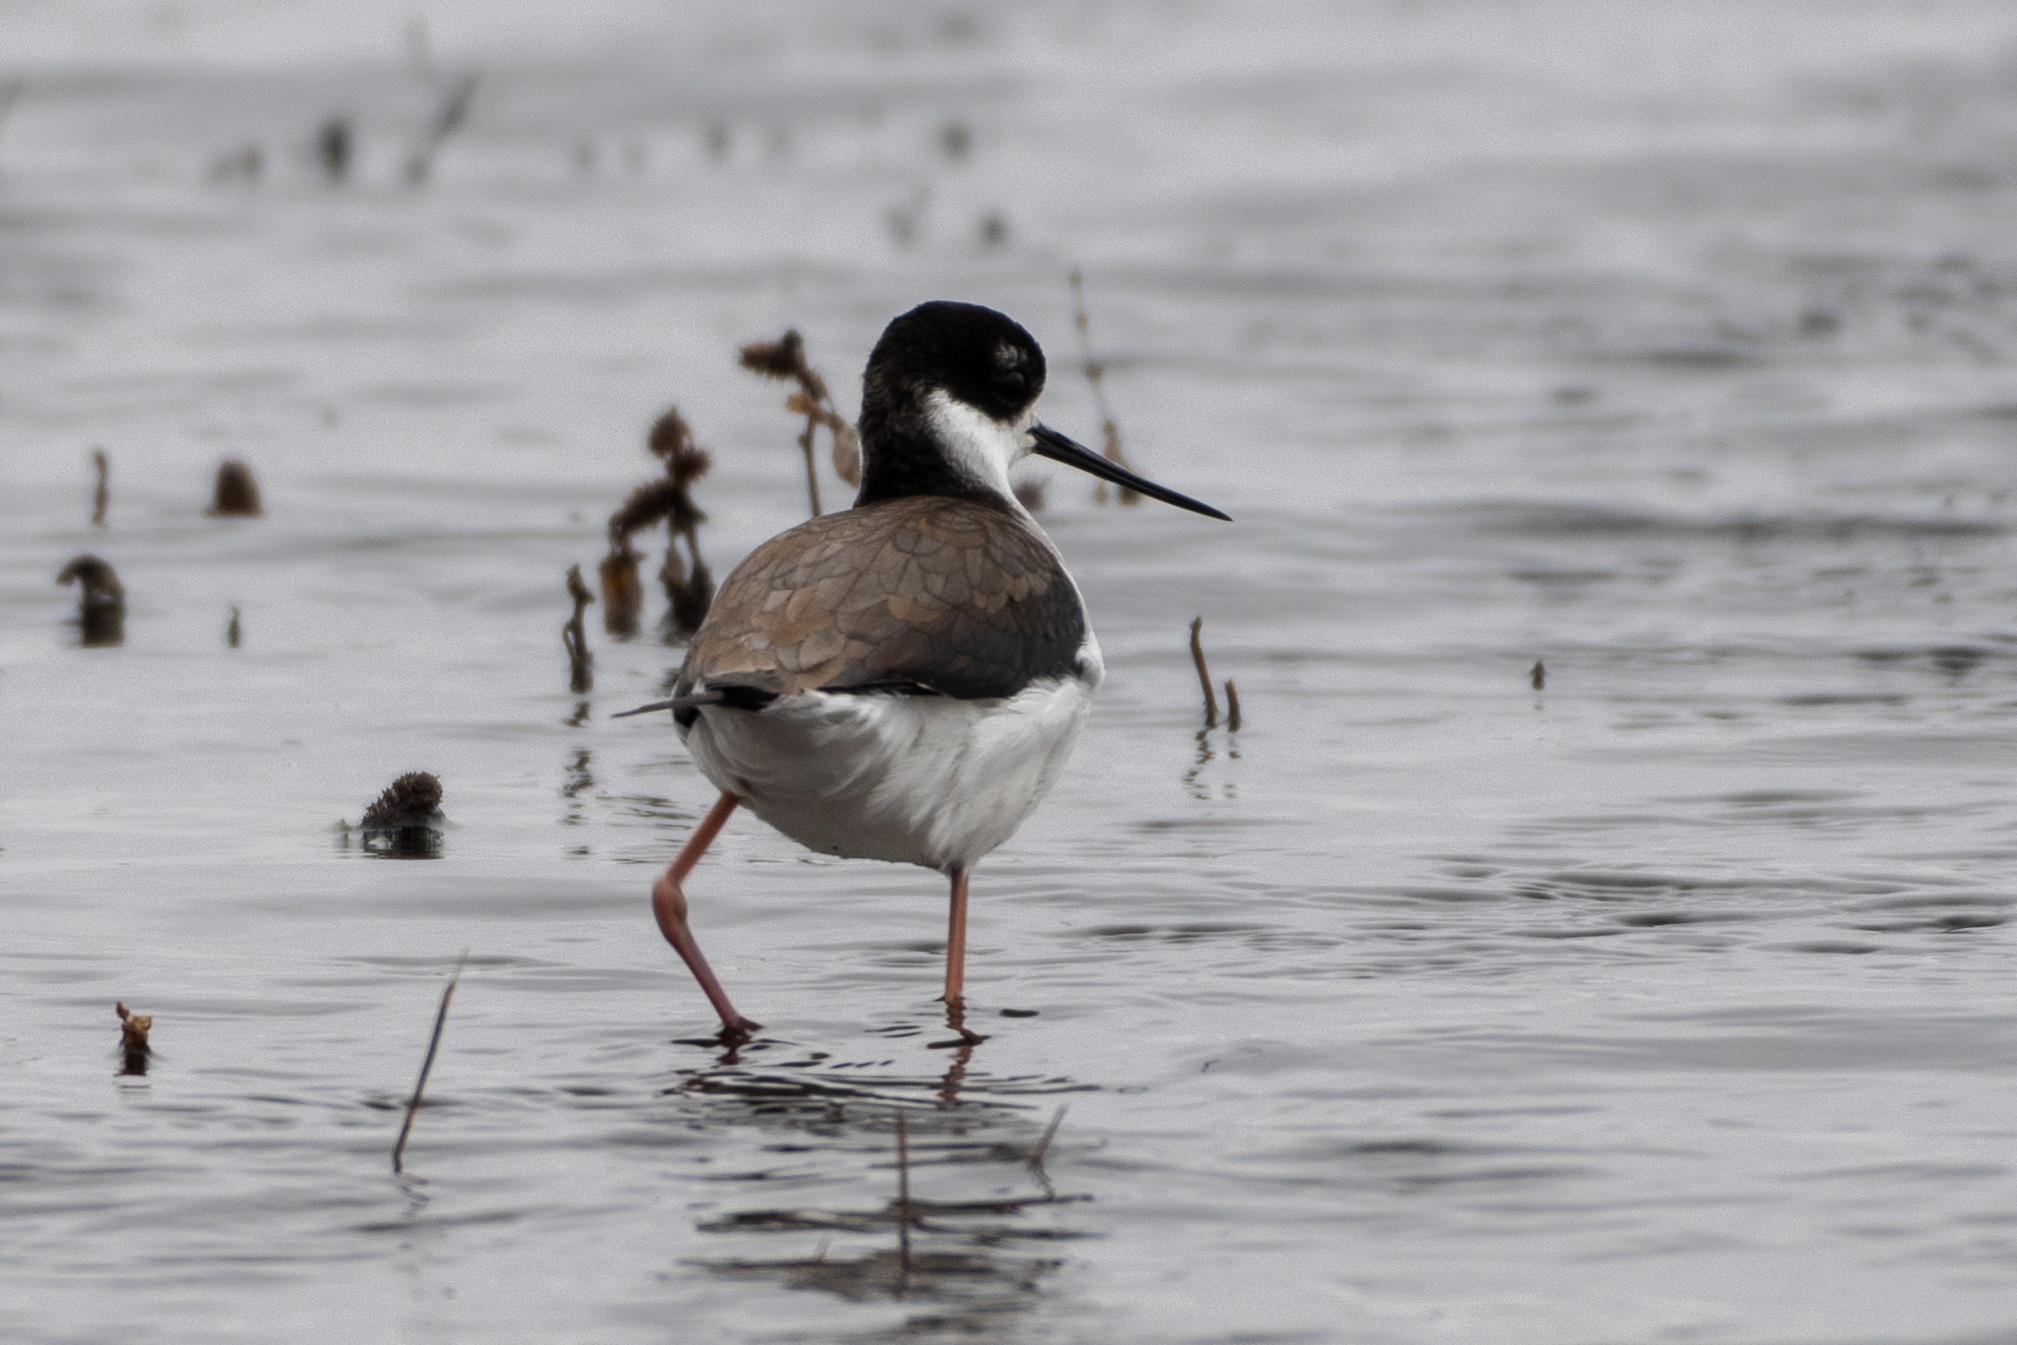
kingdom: Animalia
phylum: Chordata
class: Aves
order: Charadriiformes
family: Recurvirostridae
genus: Himantopus
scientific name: Himantopus mexicanus
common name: Black-necked stilt
